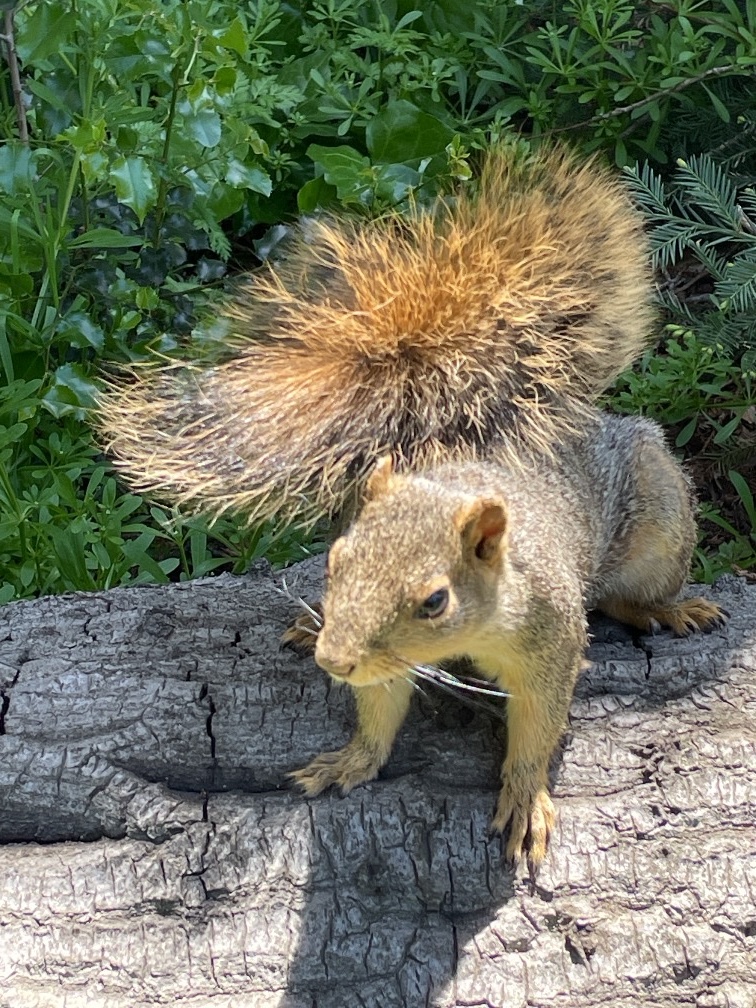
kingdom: Animalia
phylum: Chordata
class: Mammalia
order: Rodentia
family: Sciuridae
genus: Sciurus
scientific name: Sciurus niger
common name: Fox squirrel
